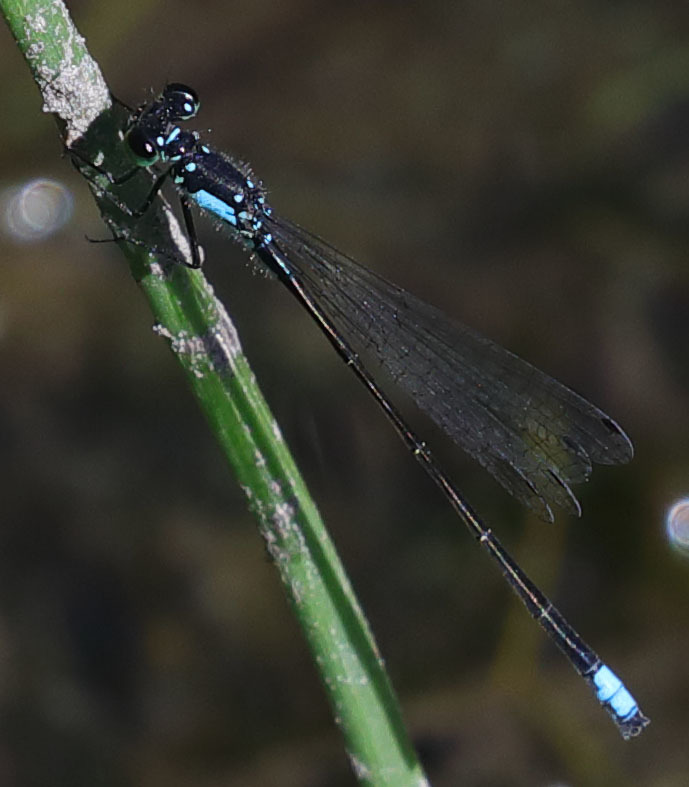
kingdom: Animalia
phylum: Arthropoda
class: Insecta
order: Odonata
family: Coenagrionidae
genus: Ischnura
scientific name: Ischnura cervula
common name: Pacific forktail
